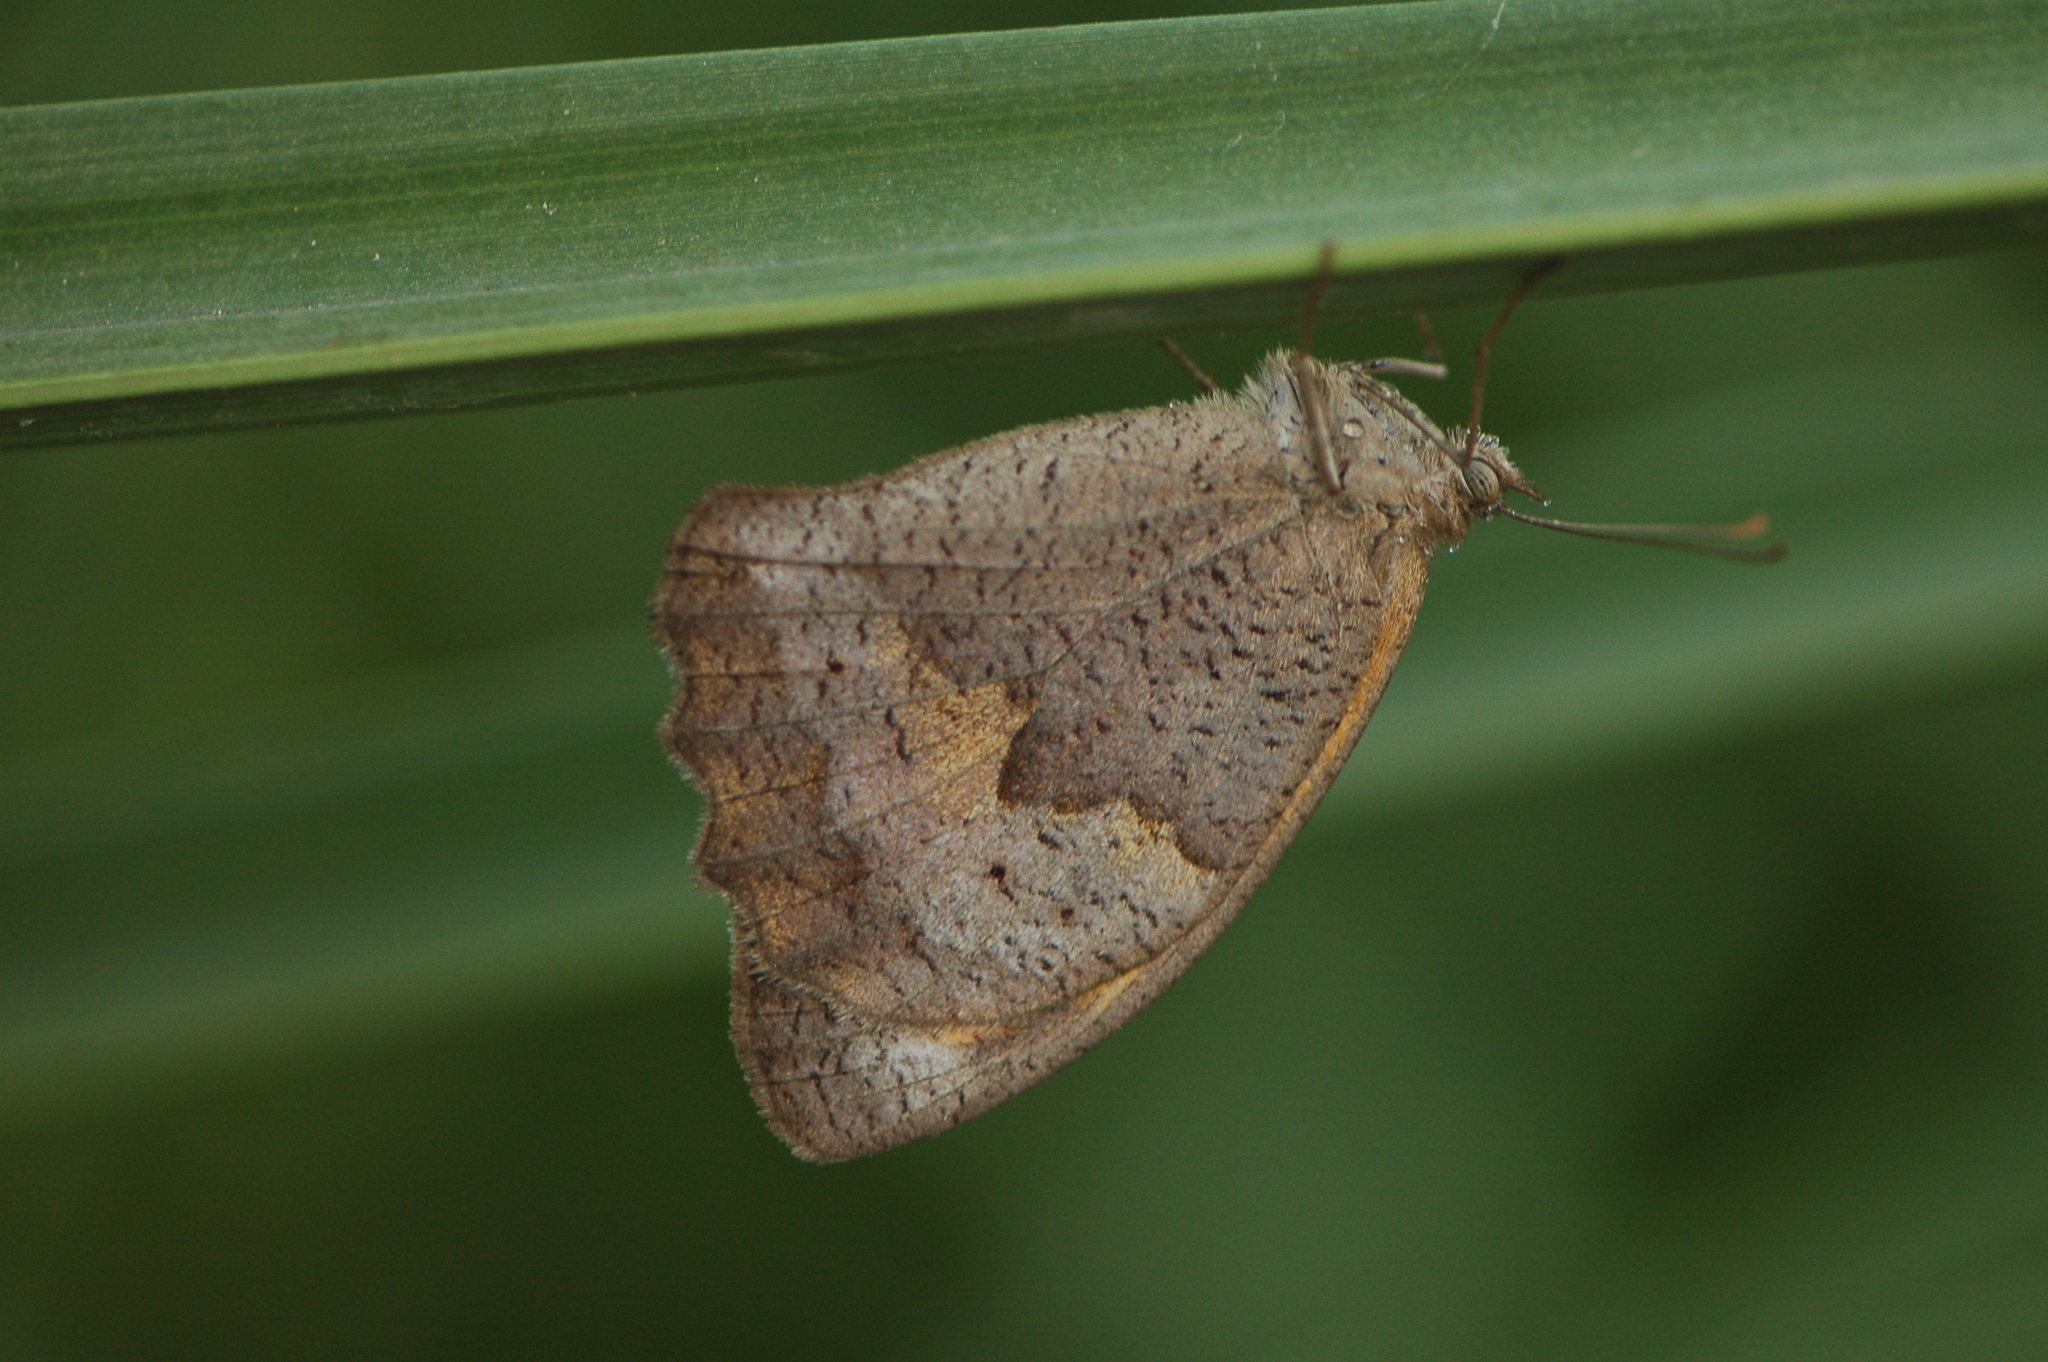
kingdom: Animalia
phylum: Arthropoda
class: Insecta
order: Lepidoptera
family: Nymphalidae
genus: Maniola
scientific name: Maniola jurtina
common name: Meadow brown
